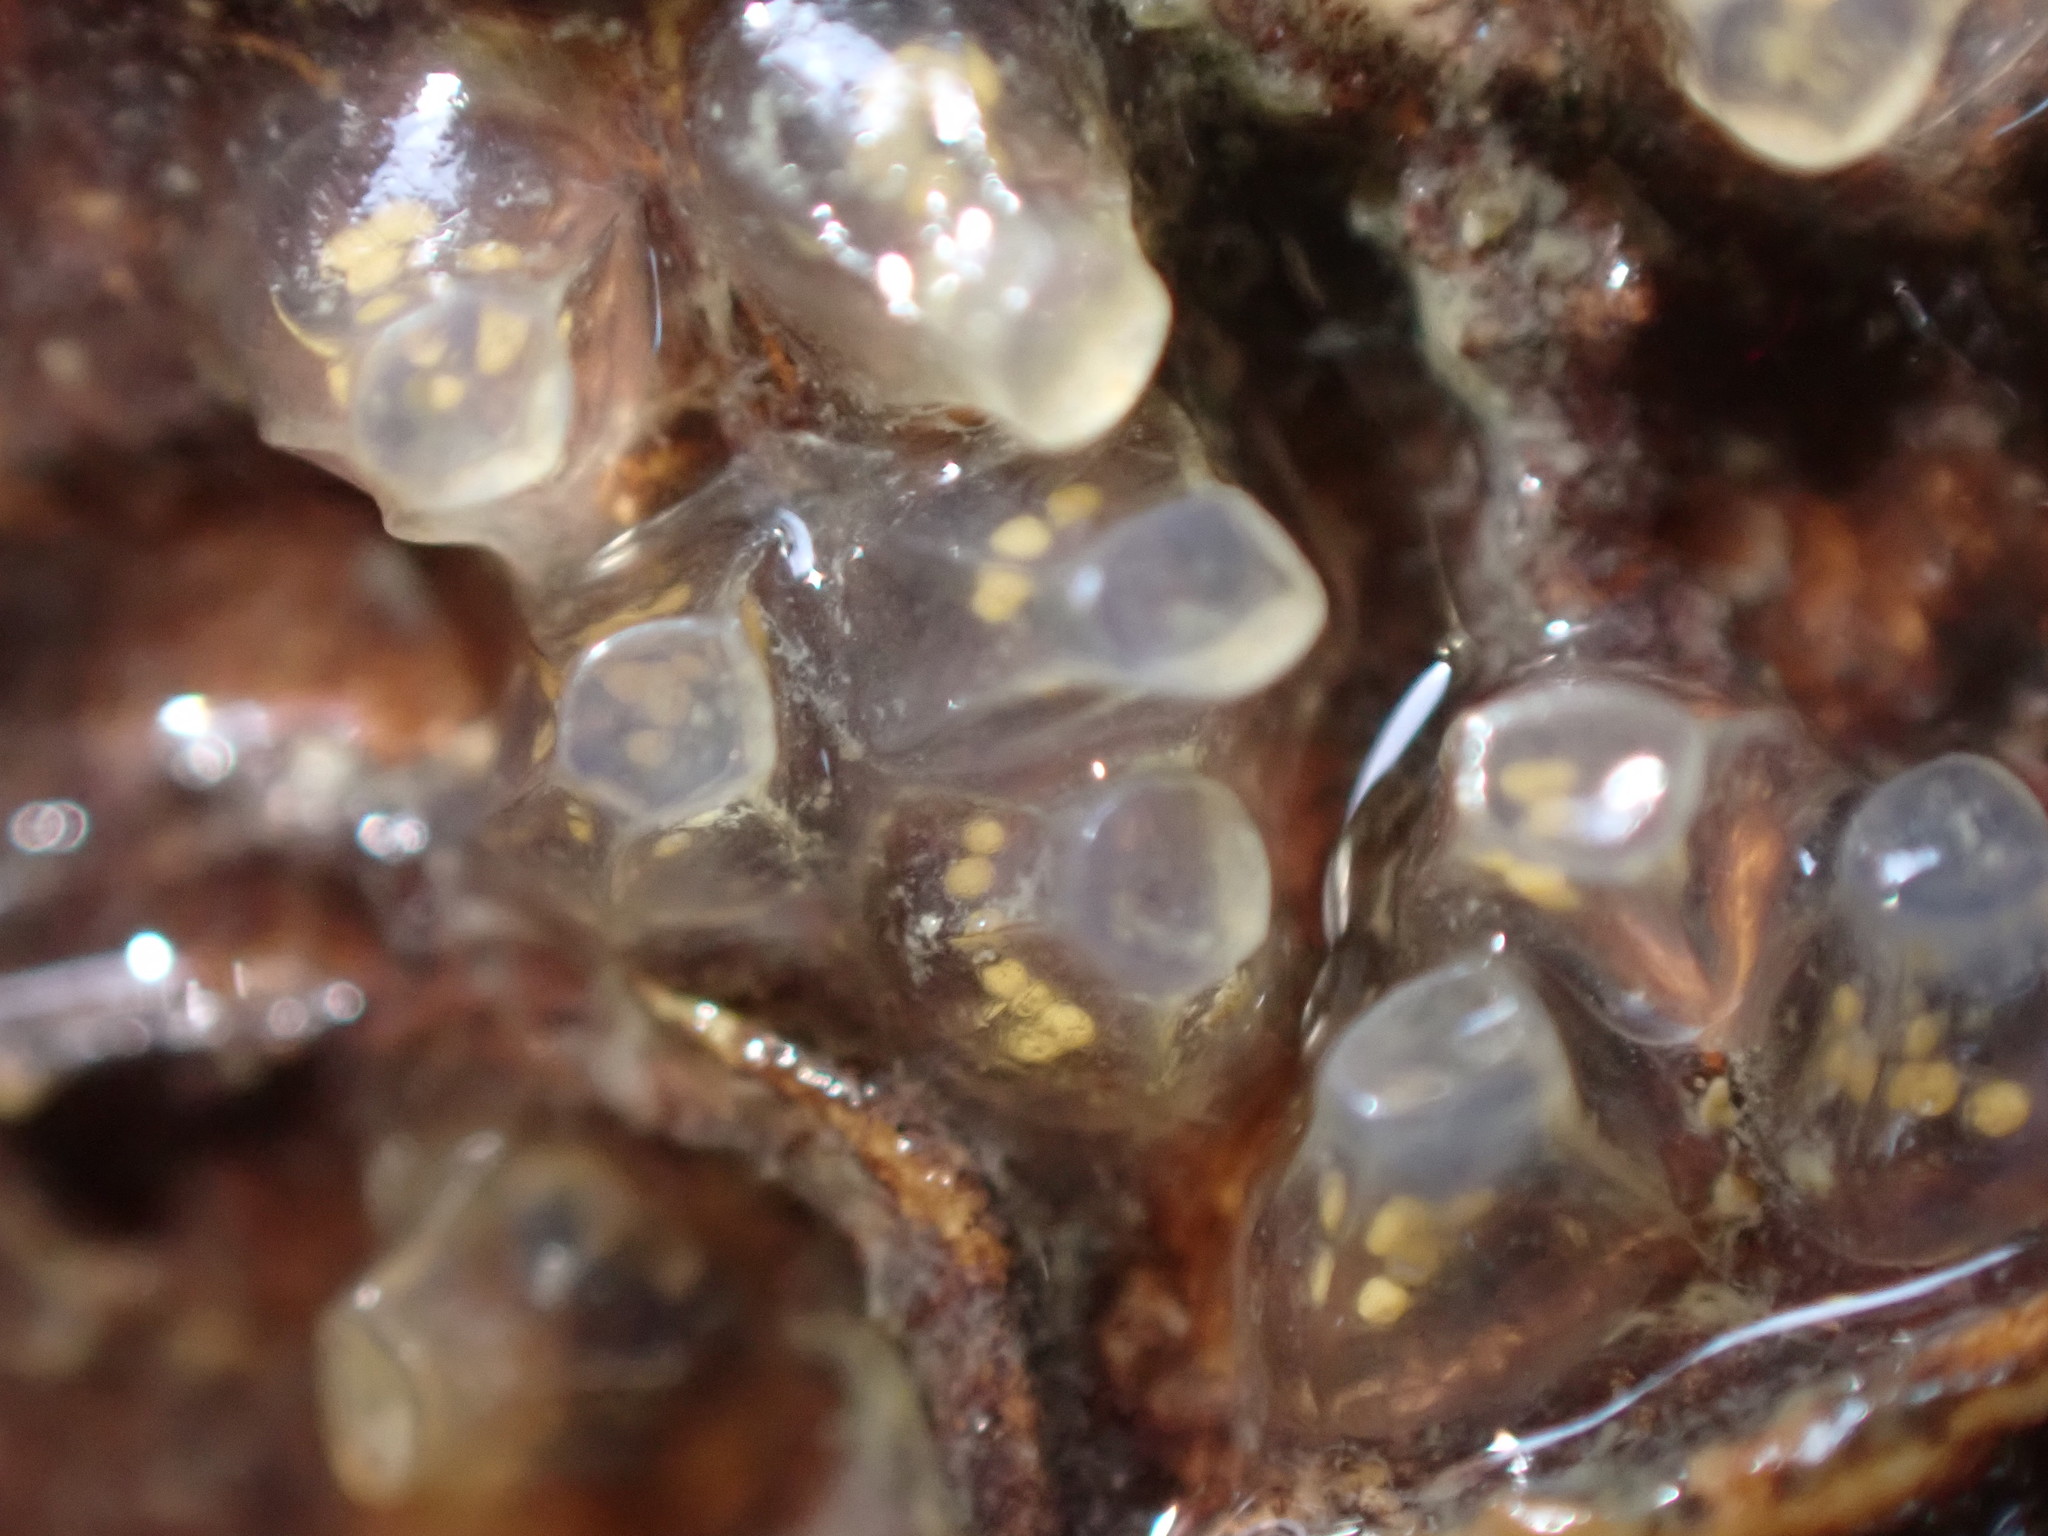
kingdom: Animalia
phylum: Mollusca
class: Gastropoda
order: Neogastropoda
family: Cominellidae
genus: Cominella
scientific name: Cominella glandiformis
